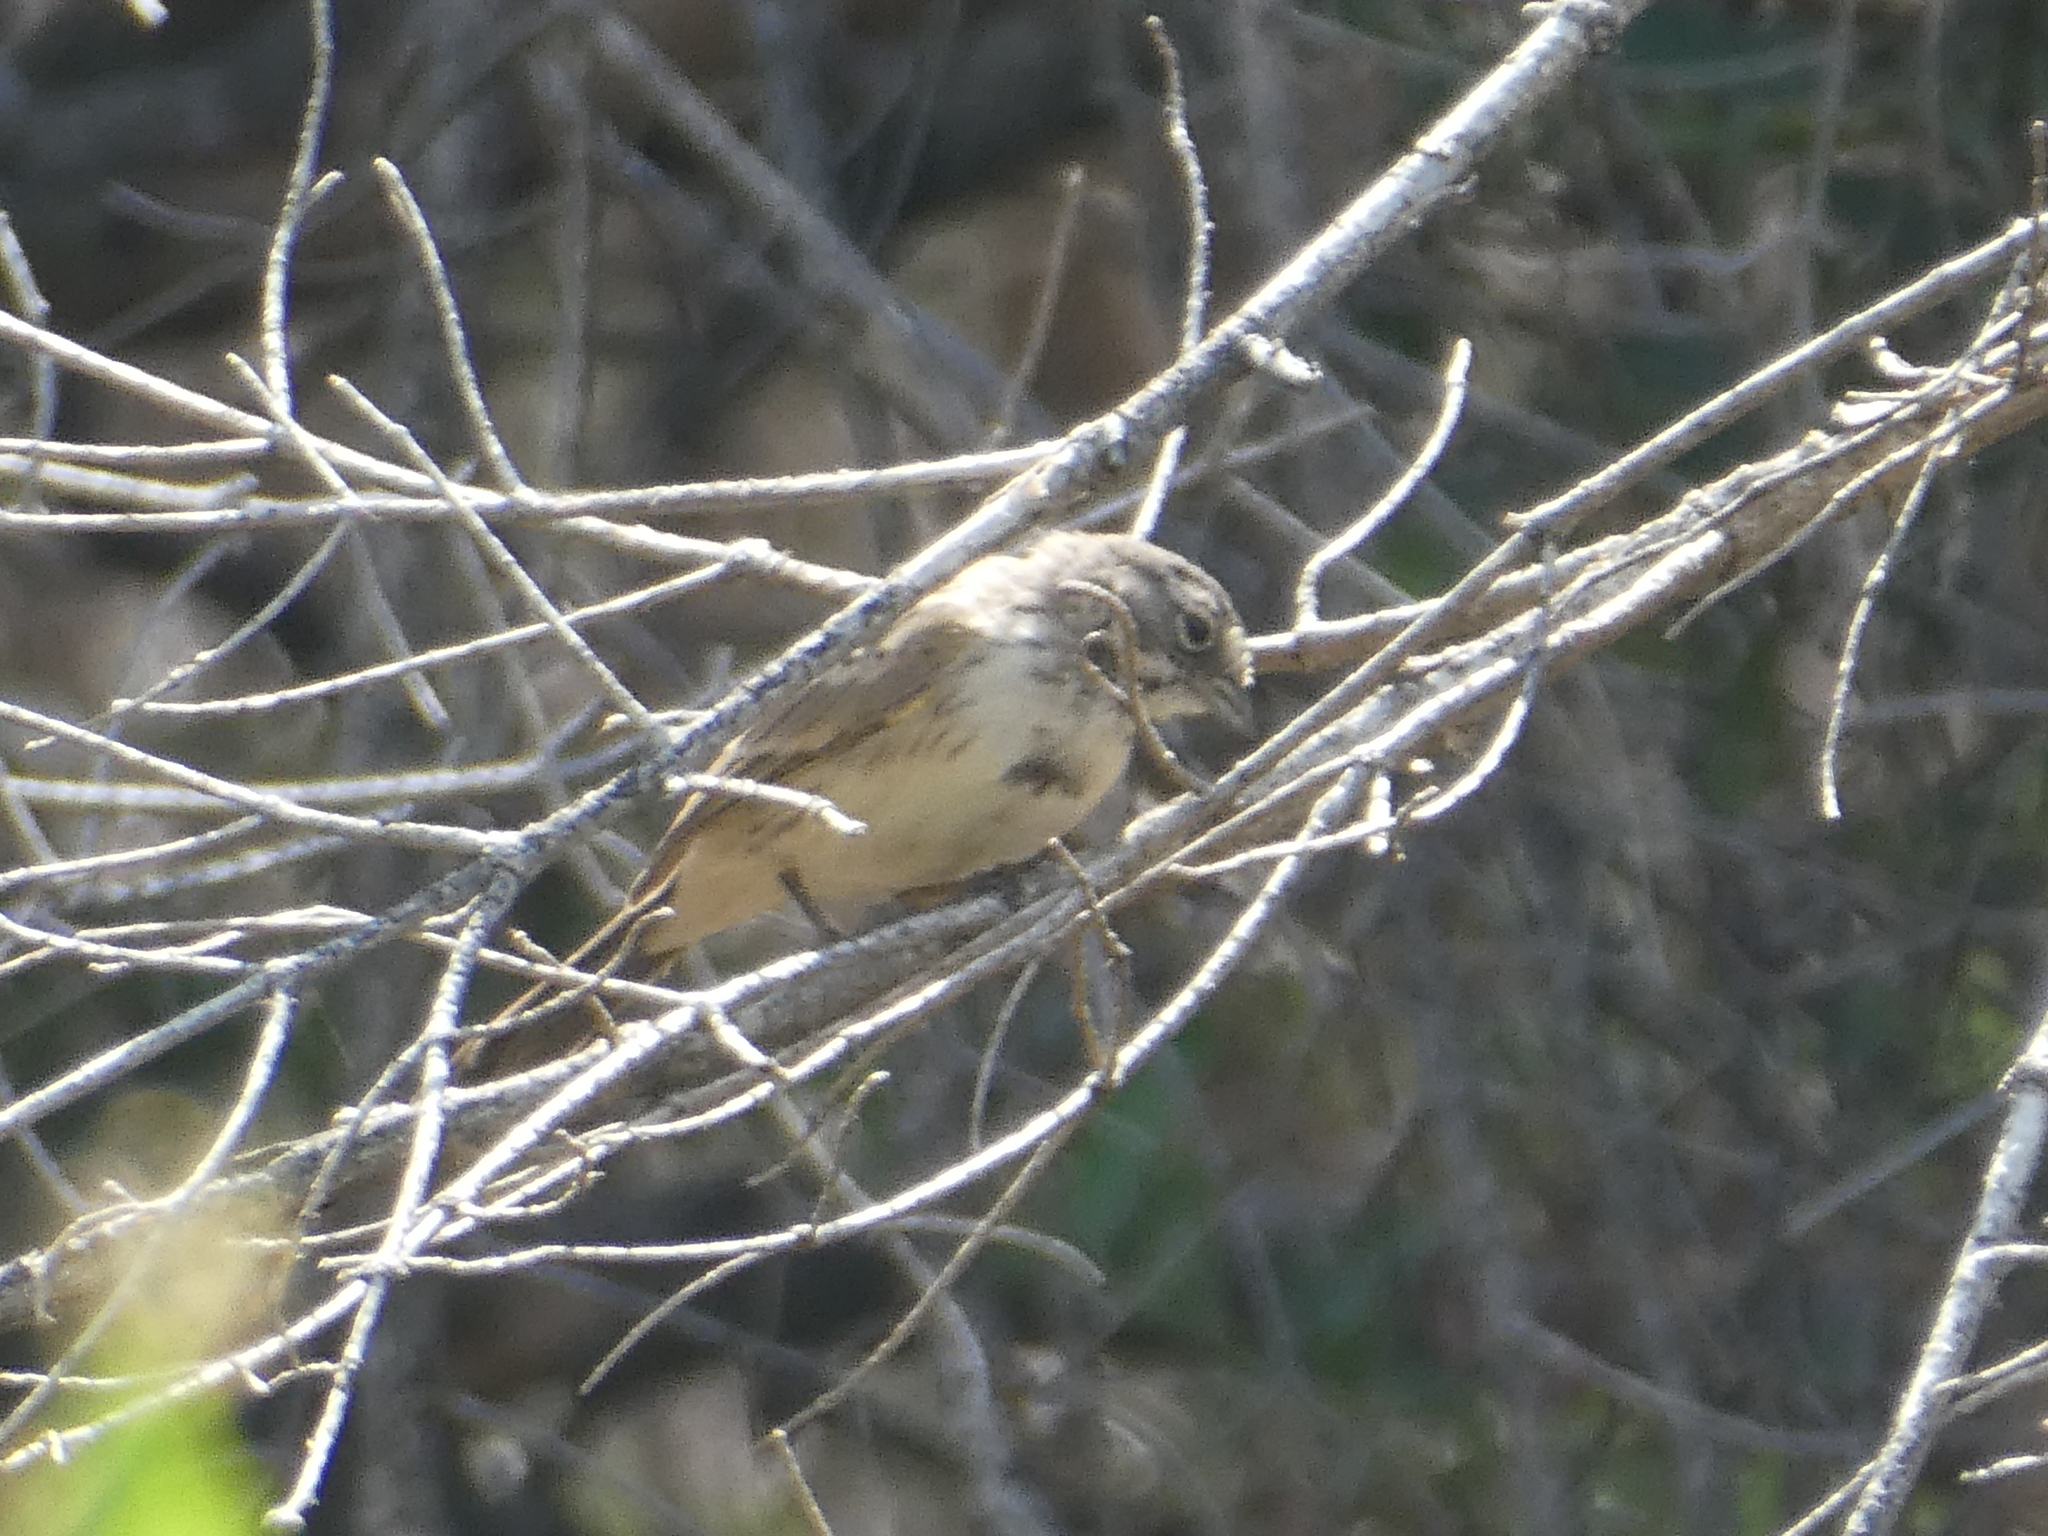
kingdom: Animalia
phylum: Chordata
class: Aves
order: Passeriformes
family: Passerellidae
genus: Artemisiospiza
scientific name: Artemisiospiza belli
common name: Bell's sparrow
